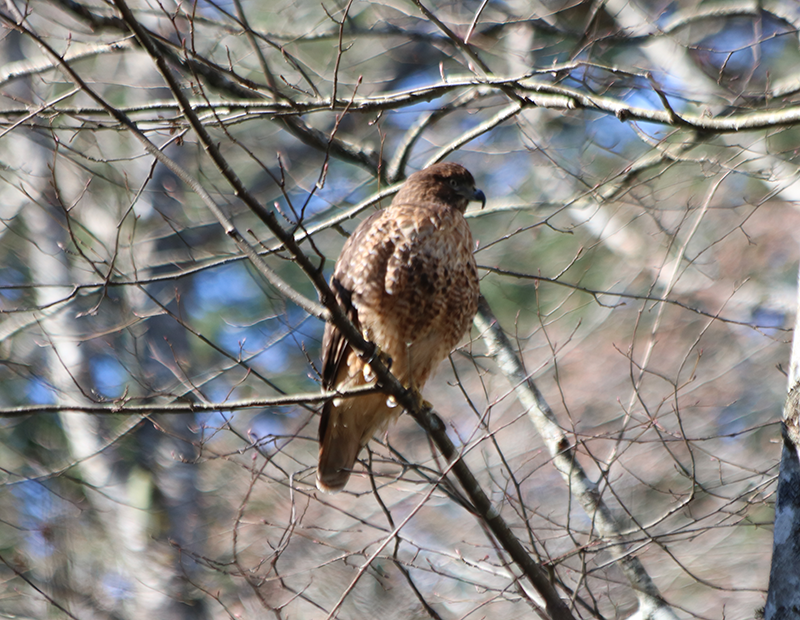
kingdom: Animalia
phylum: Chordata
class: Aves
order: Accipitriformes
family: Accipitridae
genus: Buteo
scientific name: Buteo jamaicensis
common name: Red-tailed hawk
